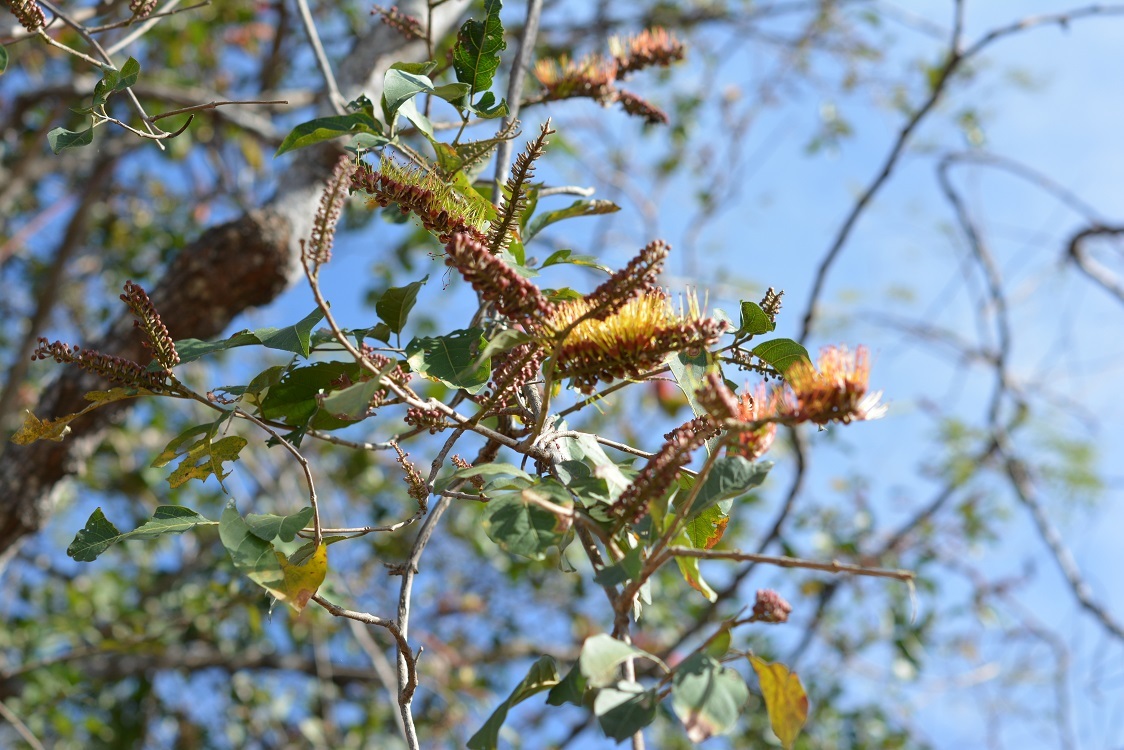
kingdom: Plantae
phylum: Tracheophyta
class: Magnoliopsida
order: Myrtales
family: Combretaceae
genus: Combretum
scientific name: Combretum fruticosum
